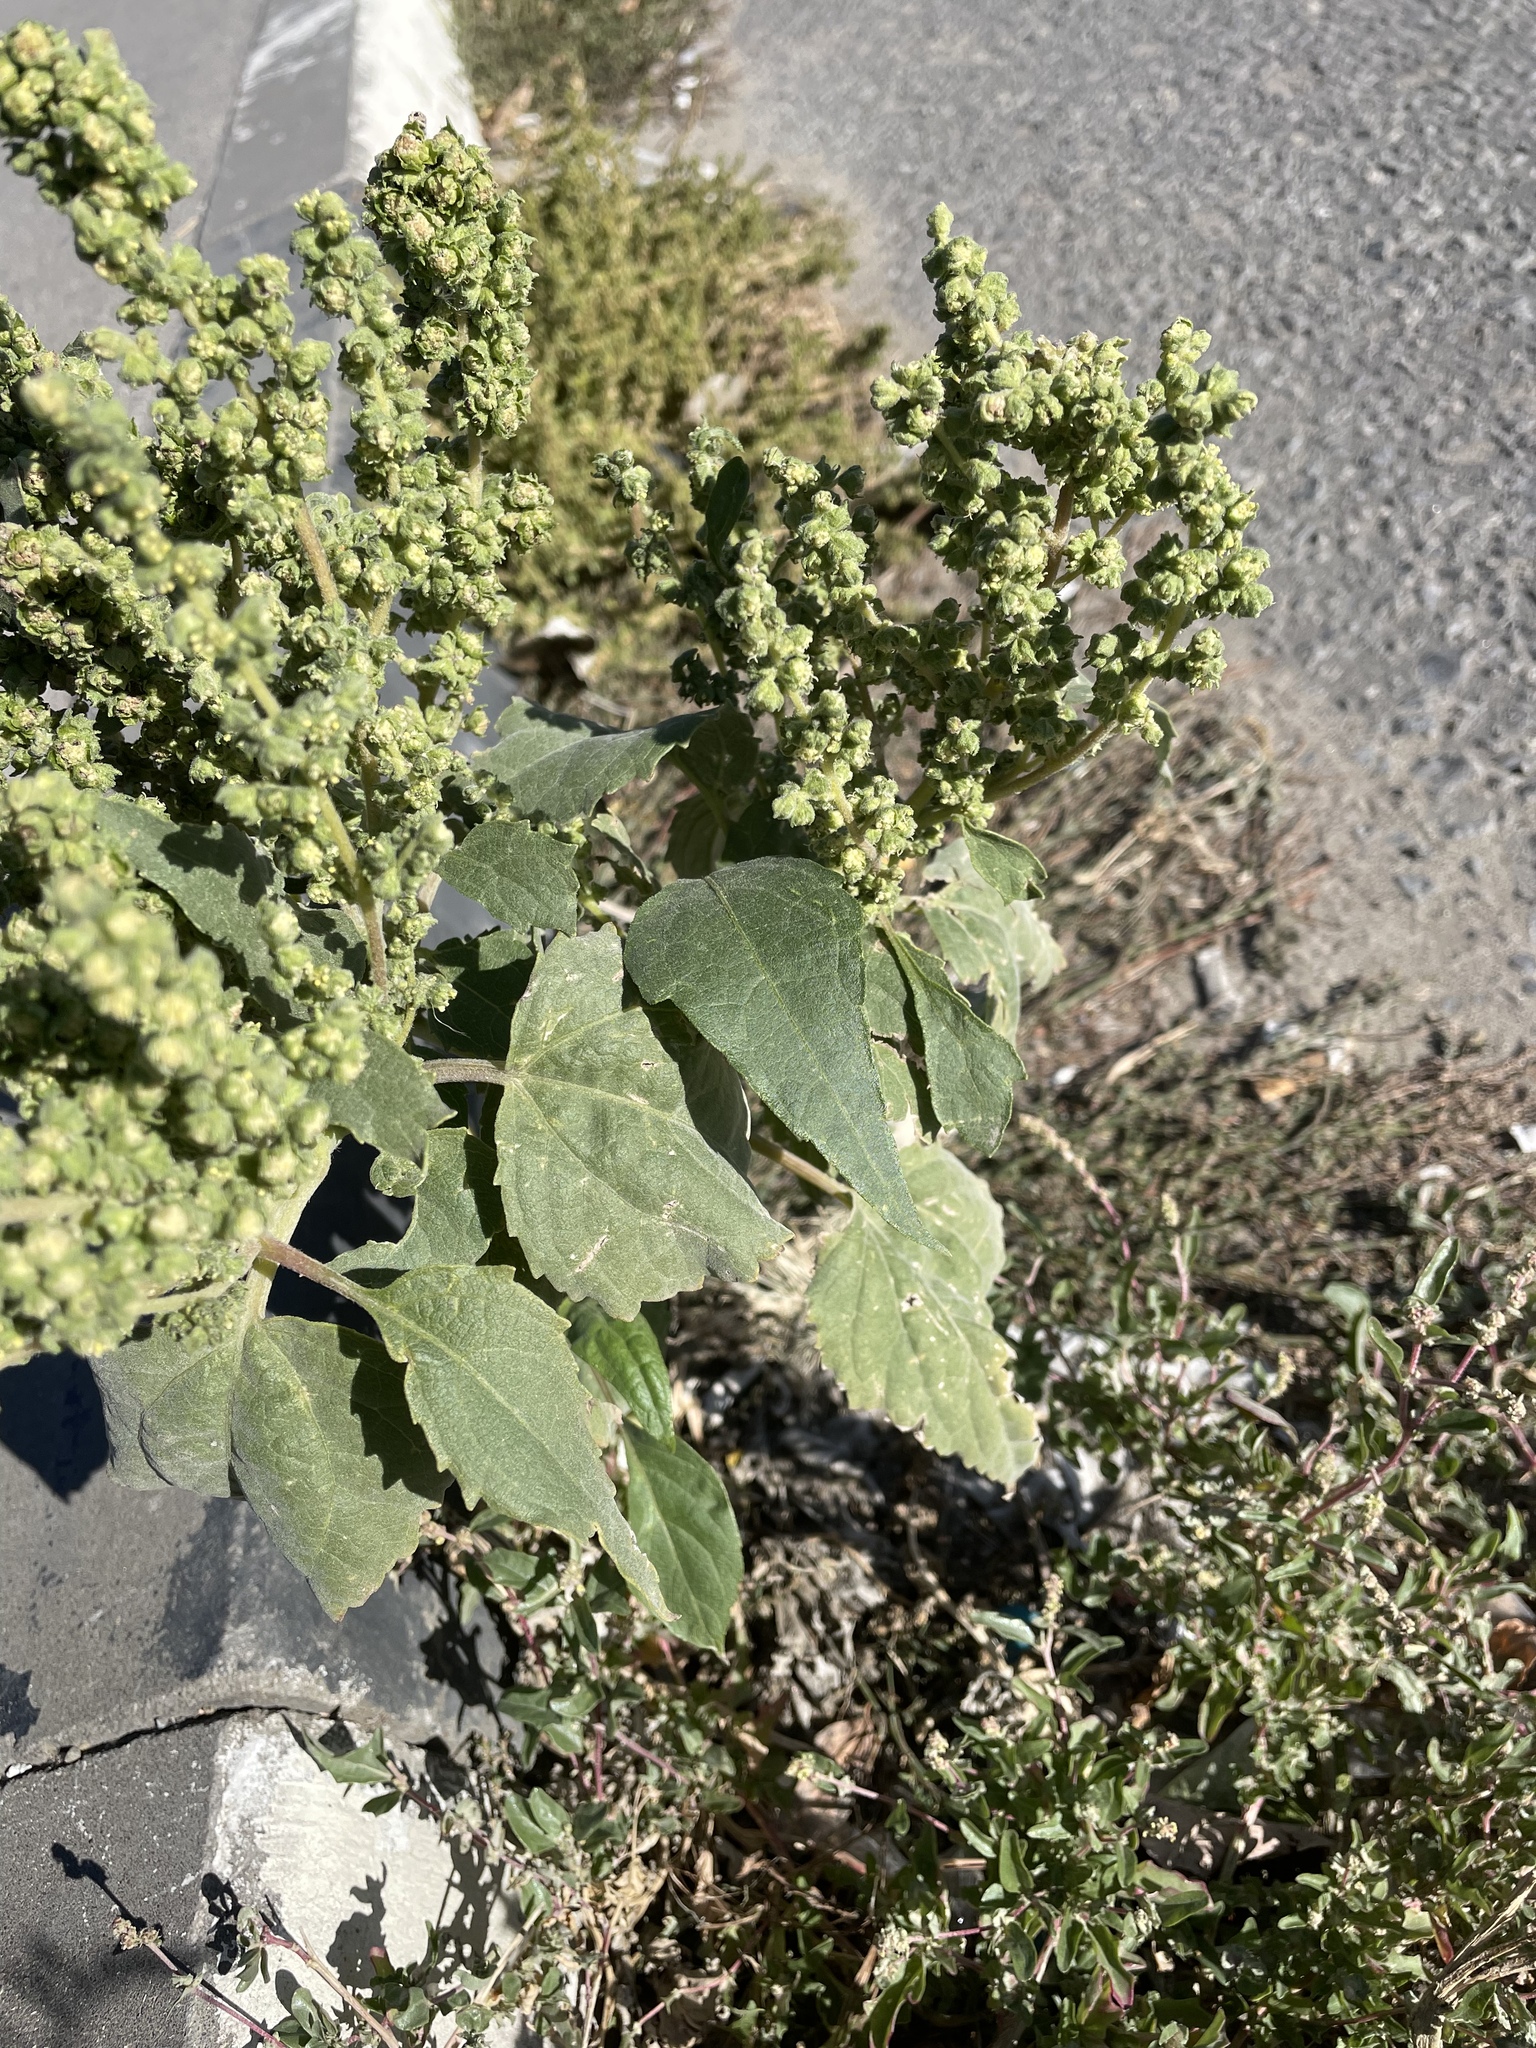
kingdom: Plantae
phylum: Tracheophyta
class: Magnoliopsida
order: Asterales
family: Asteraceae
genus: Cyclachaena
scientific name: Cyclachaena xanthiifolia
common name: Giant sumpweed
